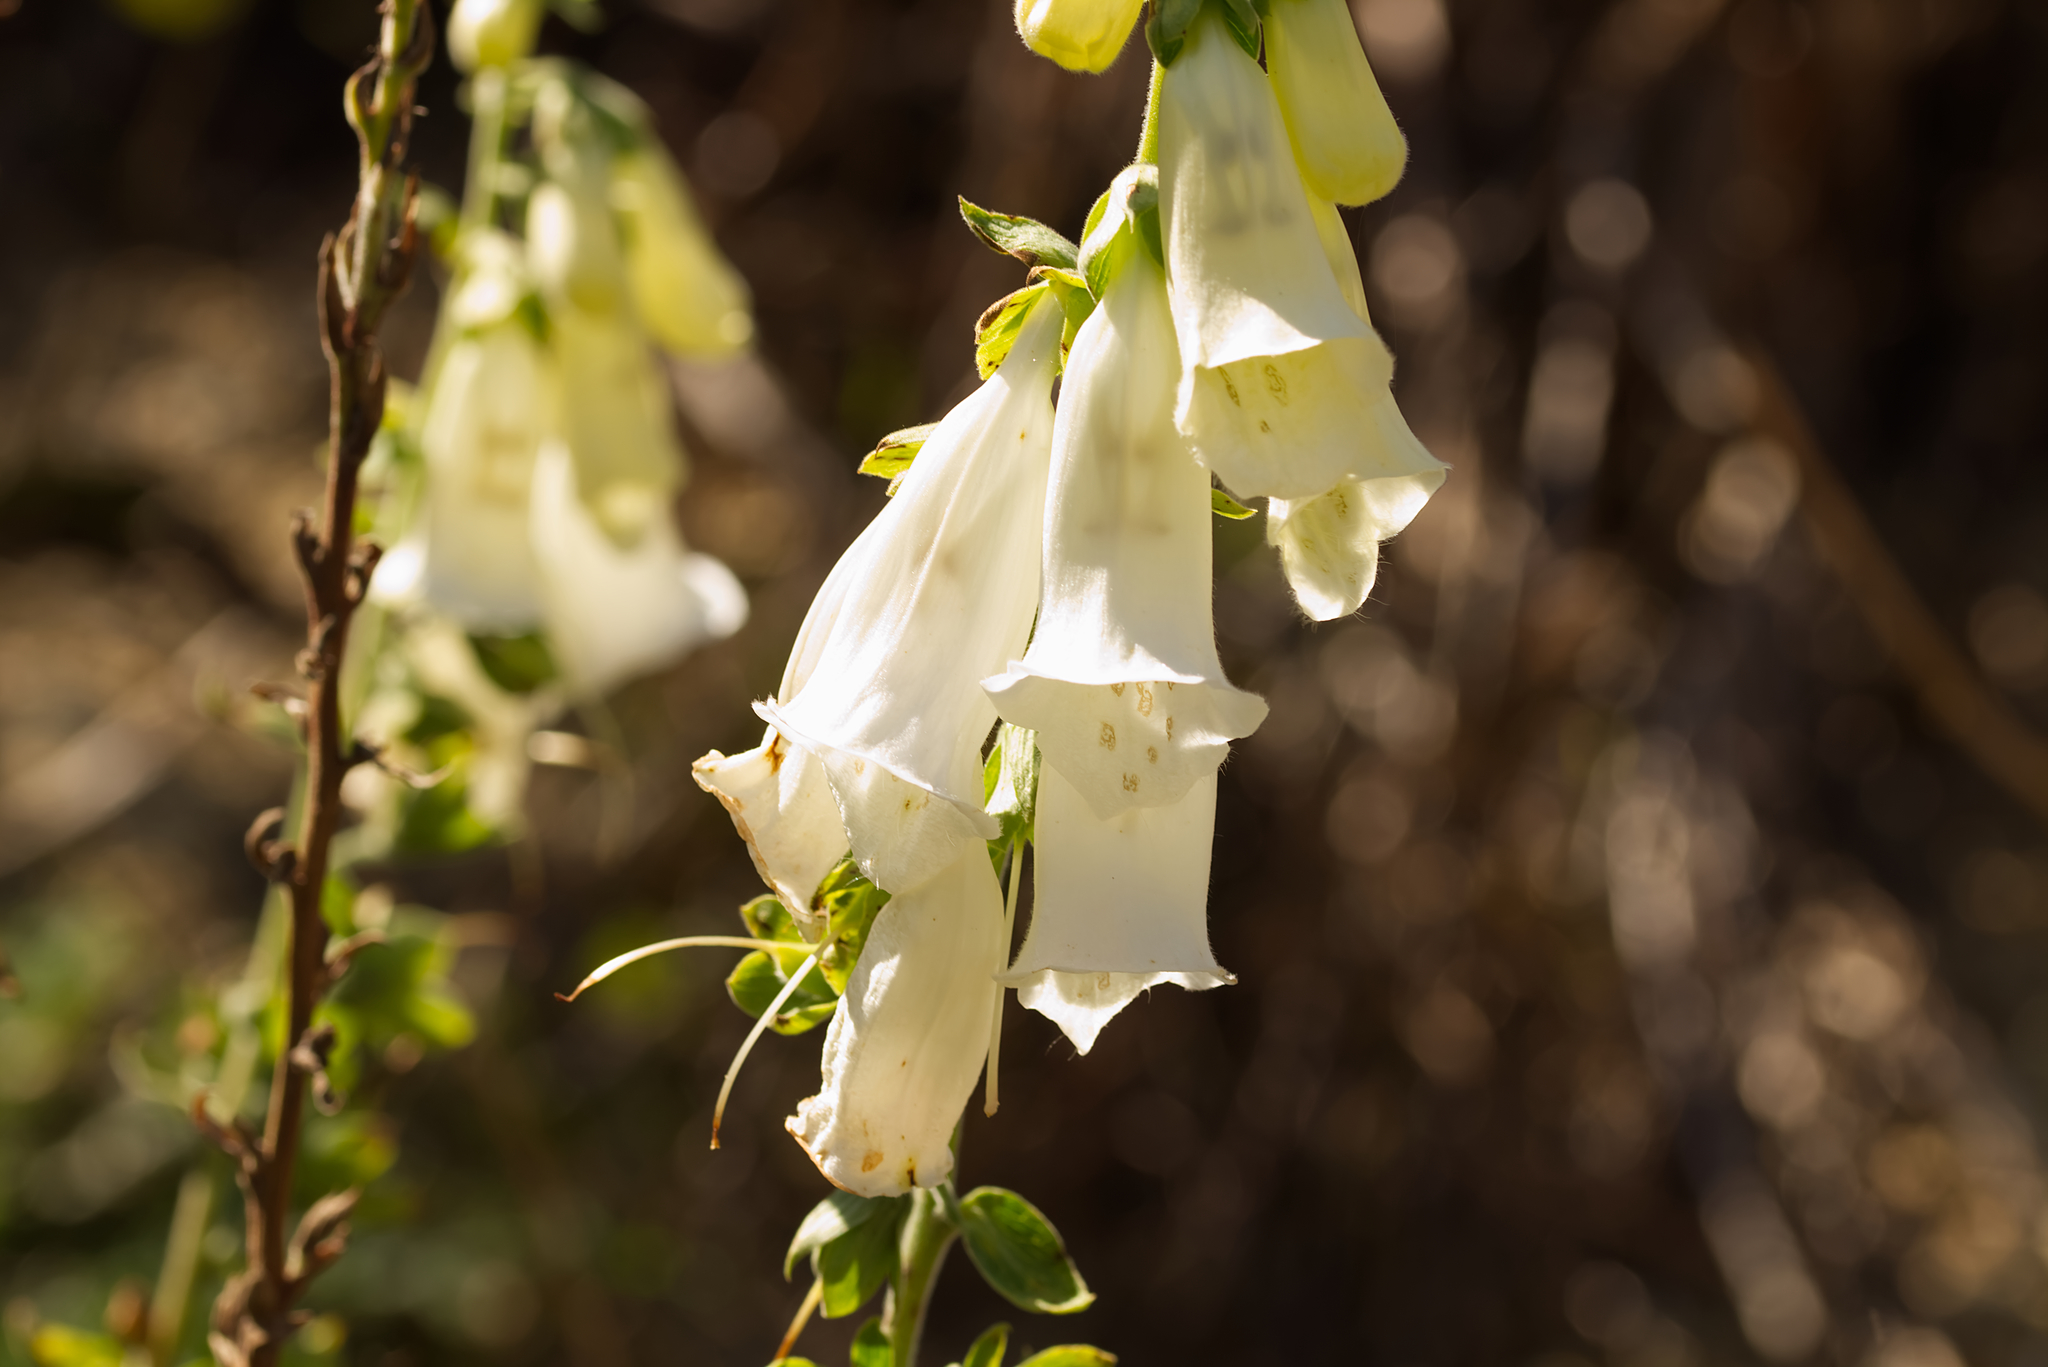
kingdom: Plantae
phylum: Tracheophyta
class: Magnoliopsida
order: Lamiales
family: Plantaginaceae
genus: Digitalis
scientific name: Digitalis purpurea
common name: Foxglove
